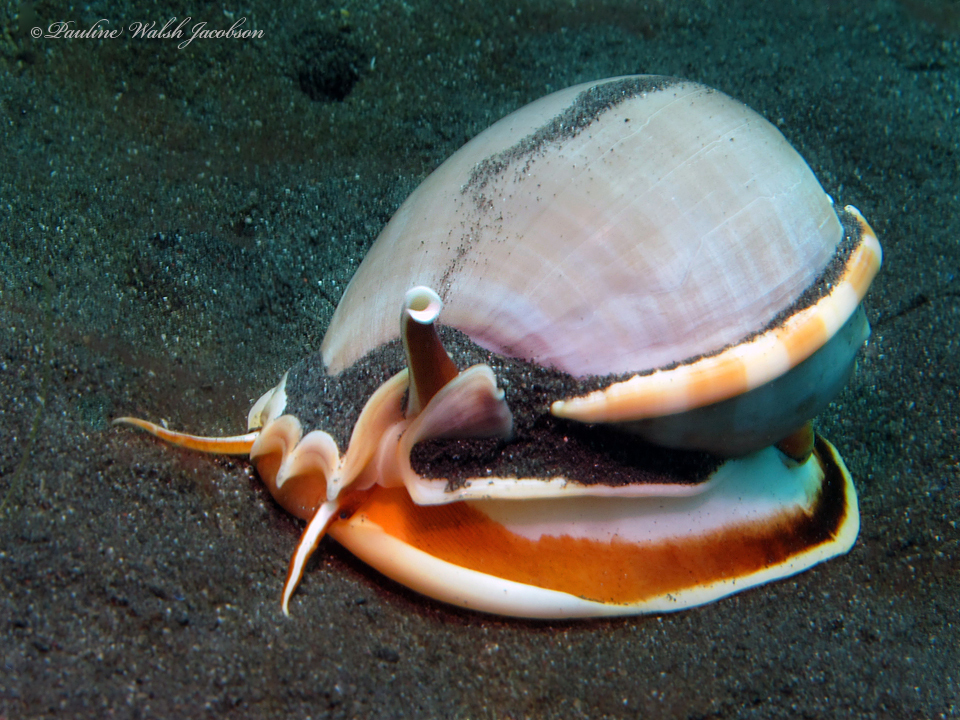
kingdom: Animalia
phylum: Mollusca
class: Gastropoda
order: Littorinimorpha
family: Cassidae
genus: Phalium
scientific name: Phalium glaucum
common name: Grey bonnet
